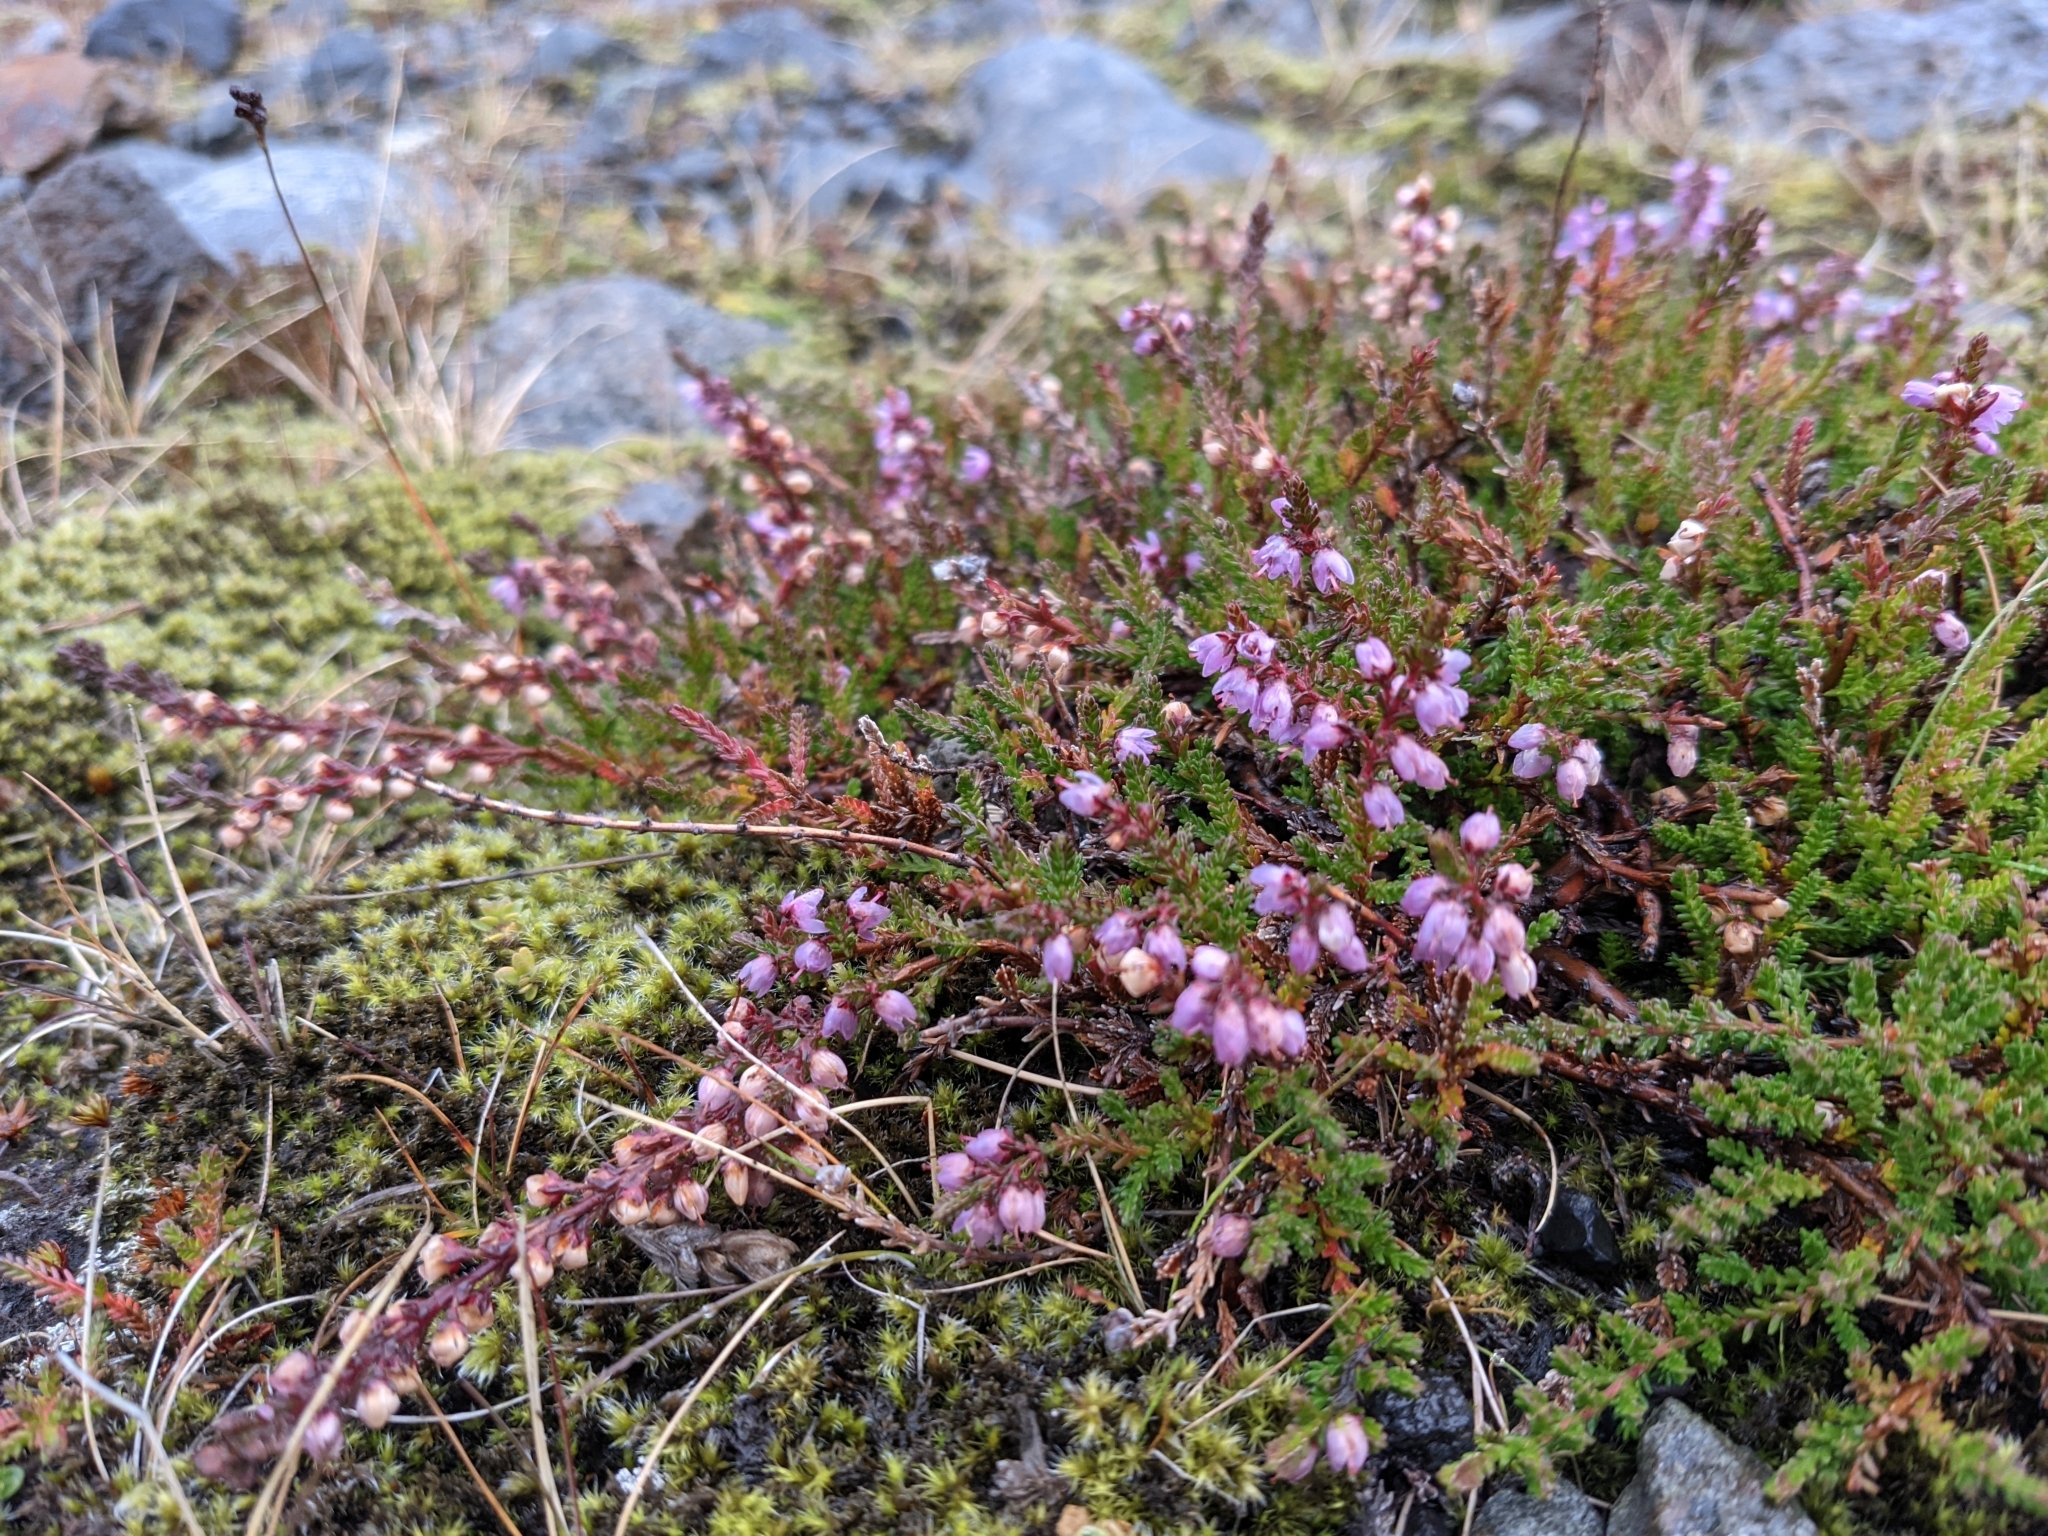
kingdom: Plantae
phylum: Tracheophyta
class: Magnoliopsida
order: Ericales
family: Ericaceae
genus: Calluna
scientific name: Calluna vulgaris
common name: Heather
